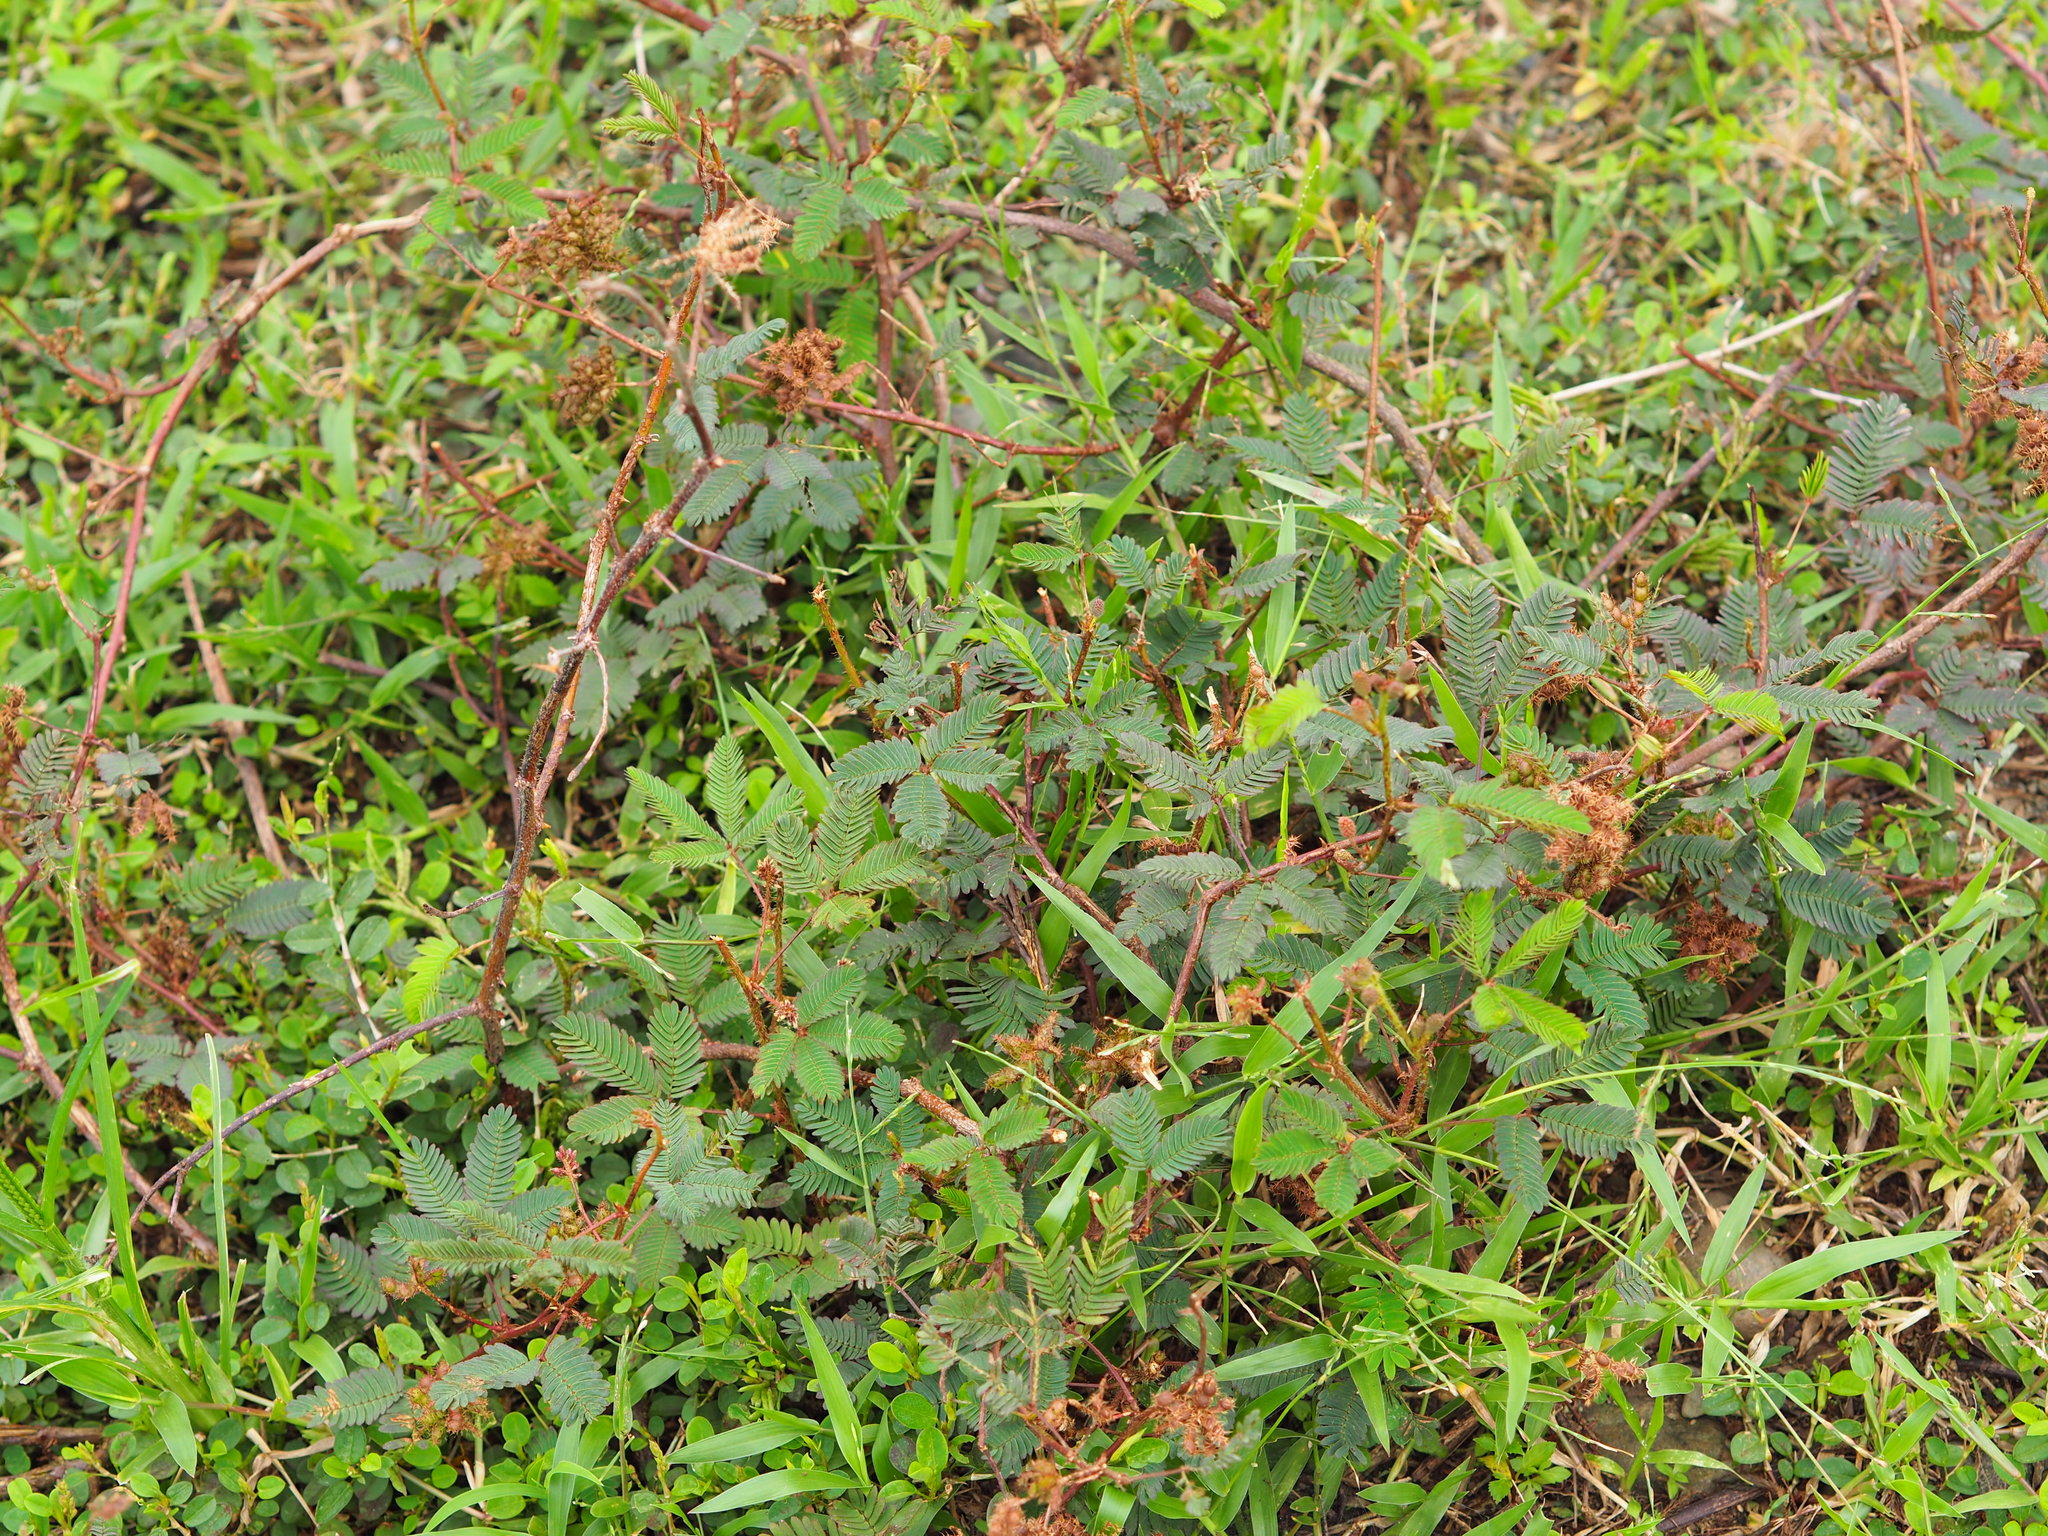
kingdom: Plantae
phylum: Tracheophyta
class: Magnoliopsida
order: Fabales
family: Fabaceae
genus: Mimosa
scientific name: Mimosa pudica
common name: Sensitive plant
